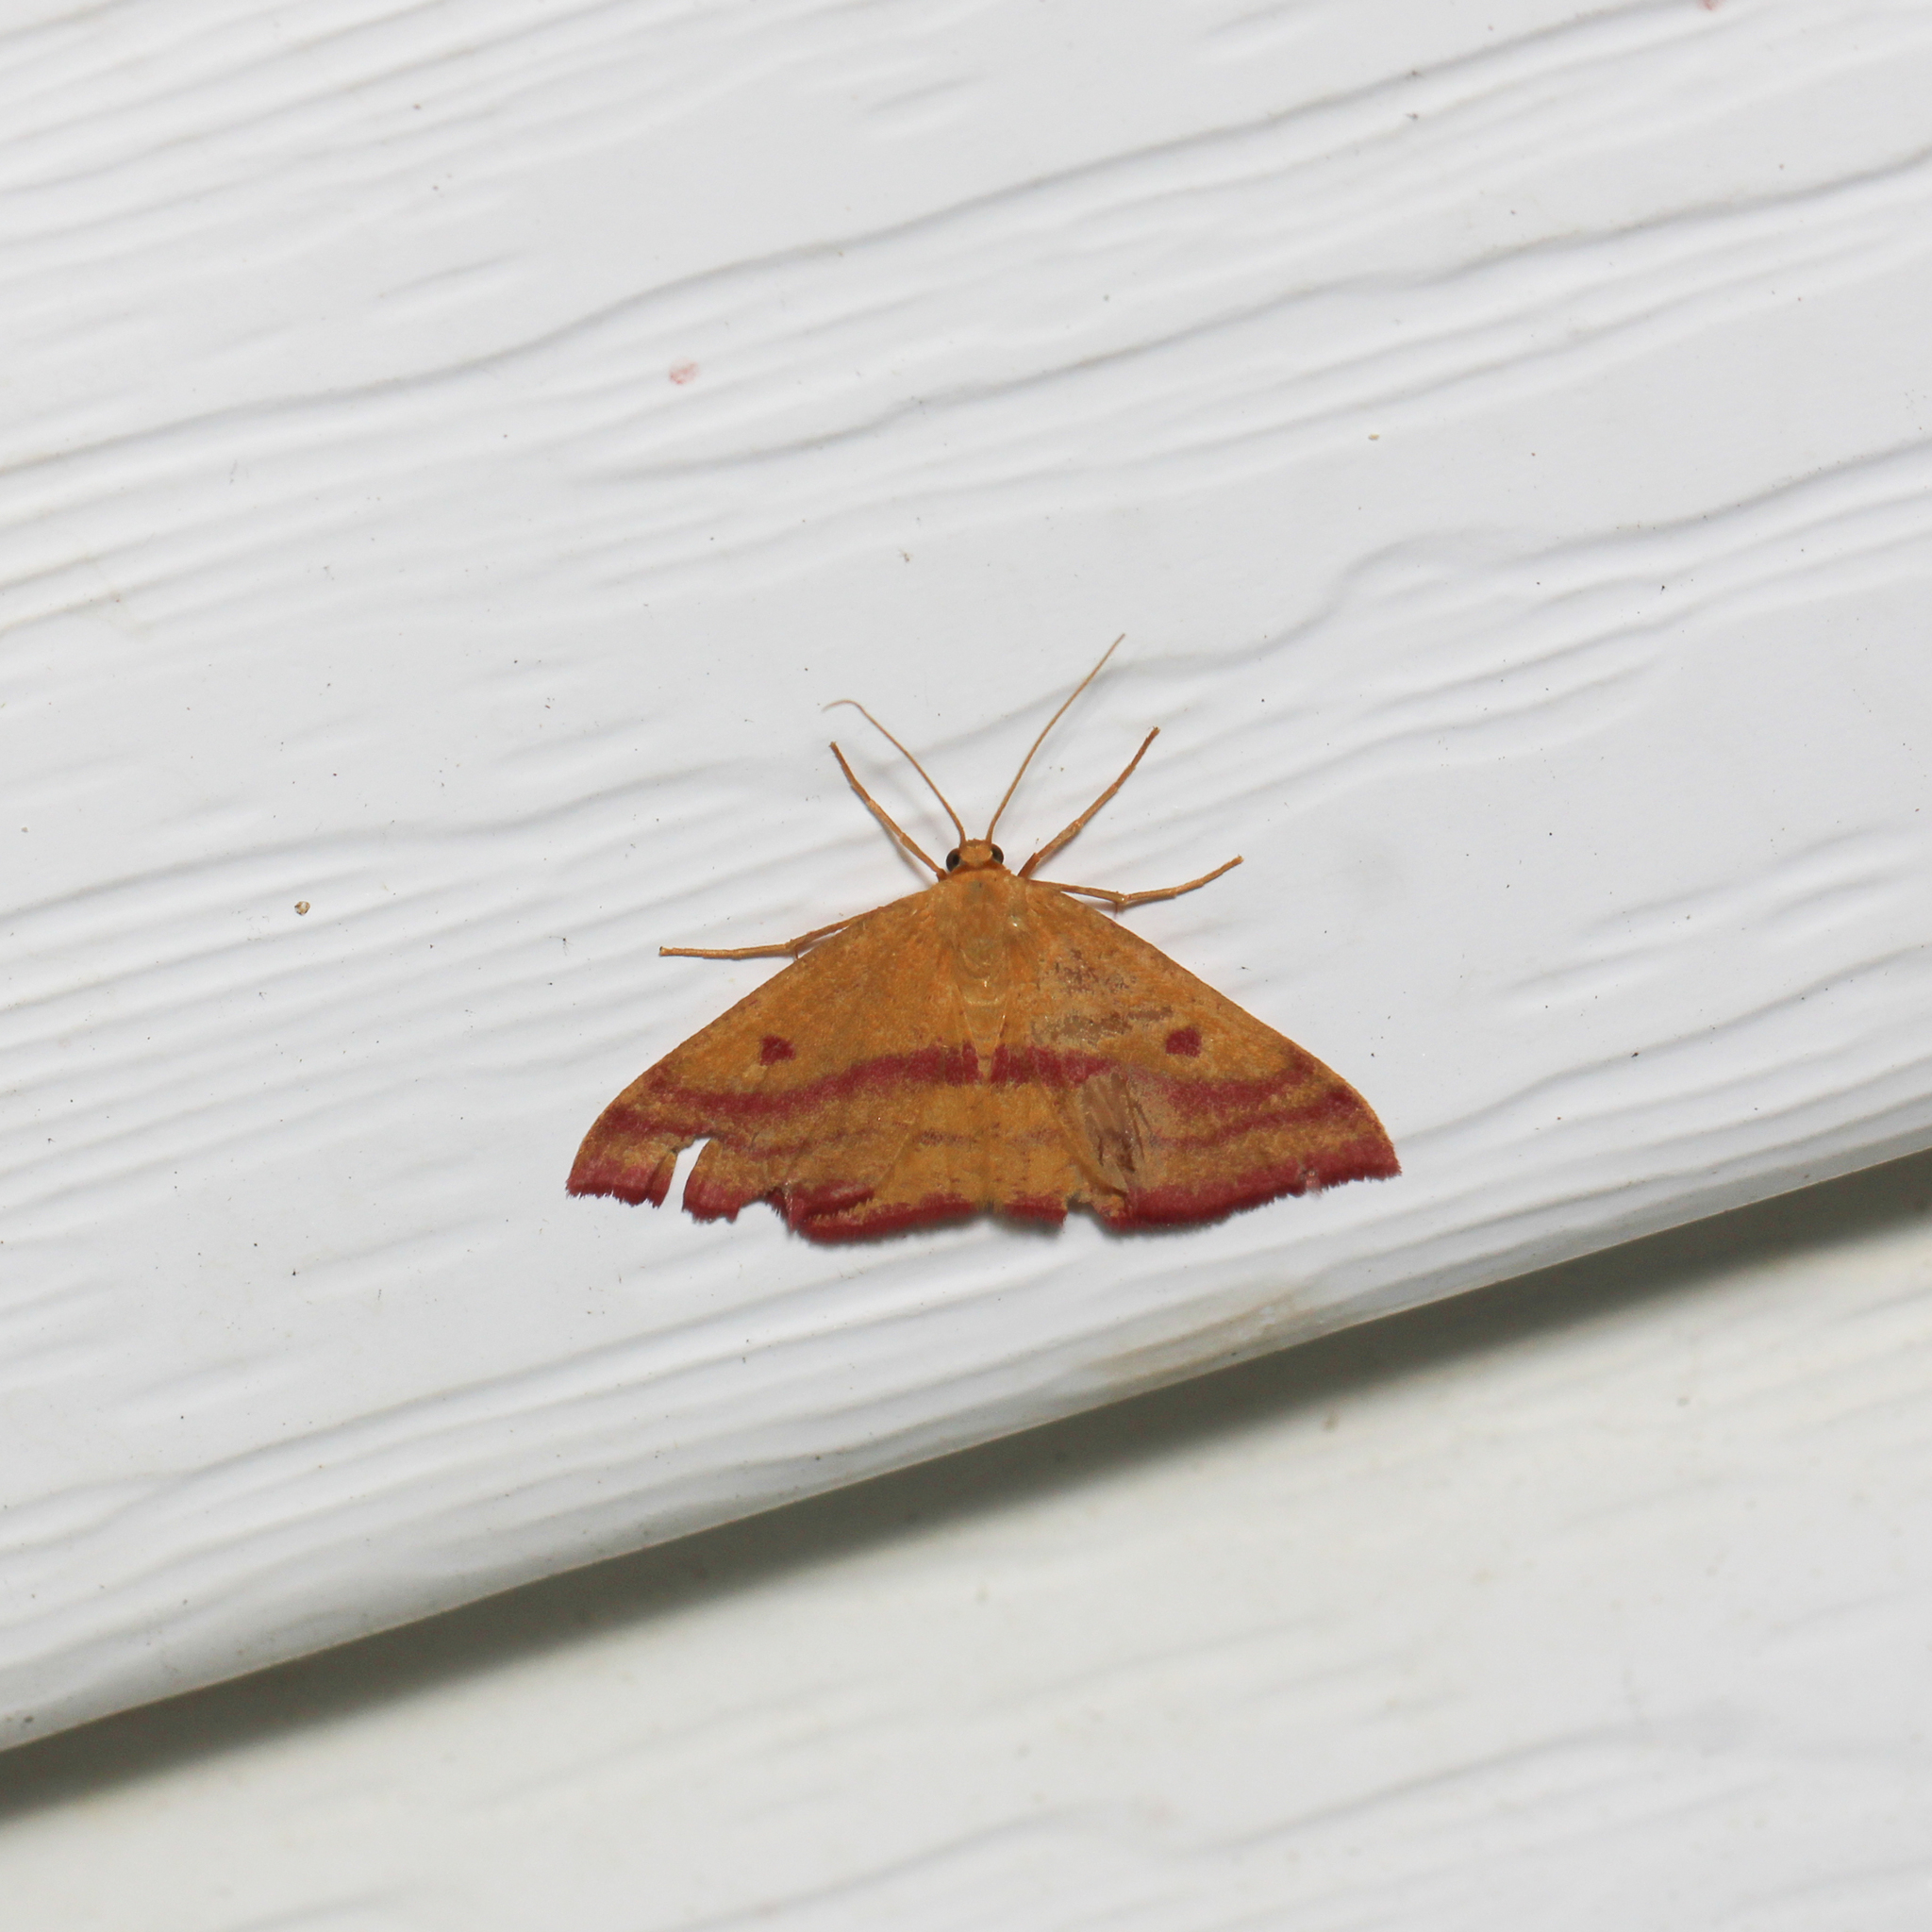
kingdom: Animalia
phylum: Arthropoda
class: Insecta
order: Lepidoptera
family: Geometridae
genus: Haematopis
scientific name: Haematopis grataria
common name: Chickweed geometer
